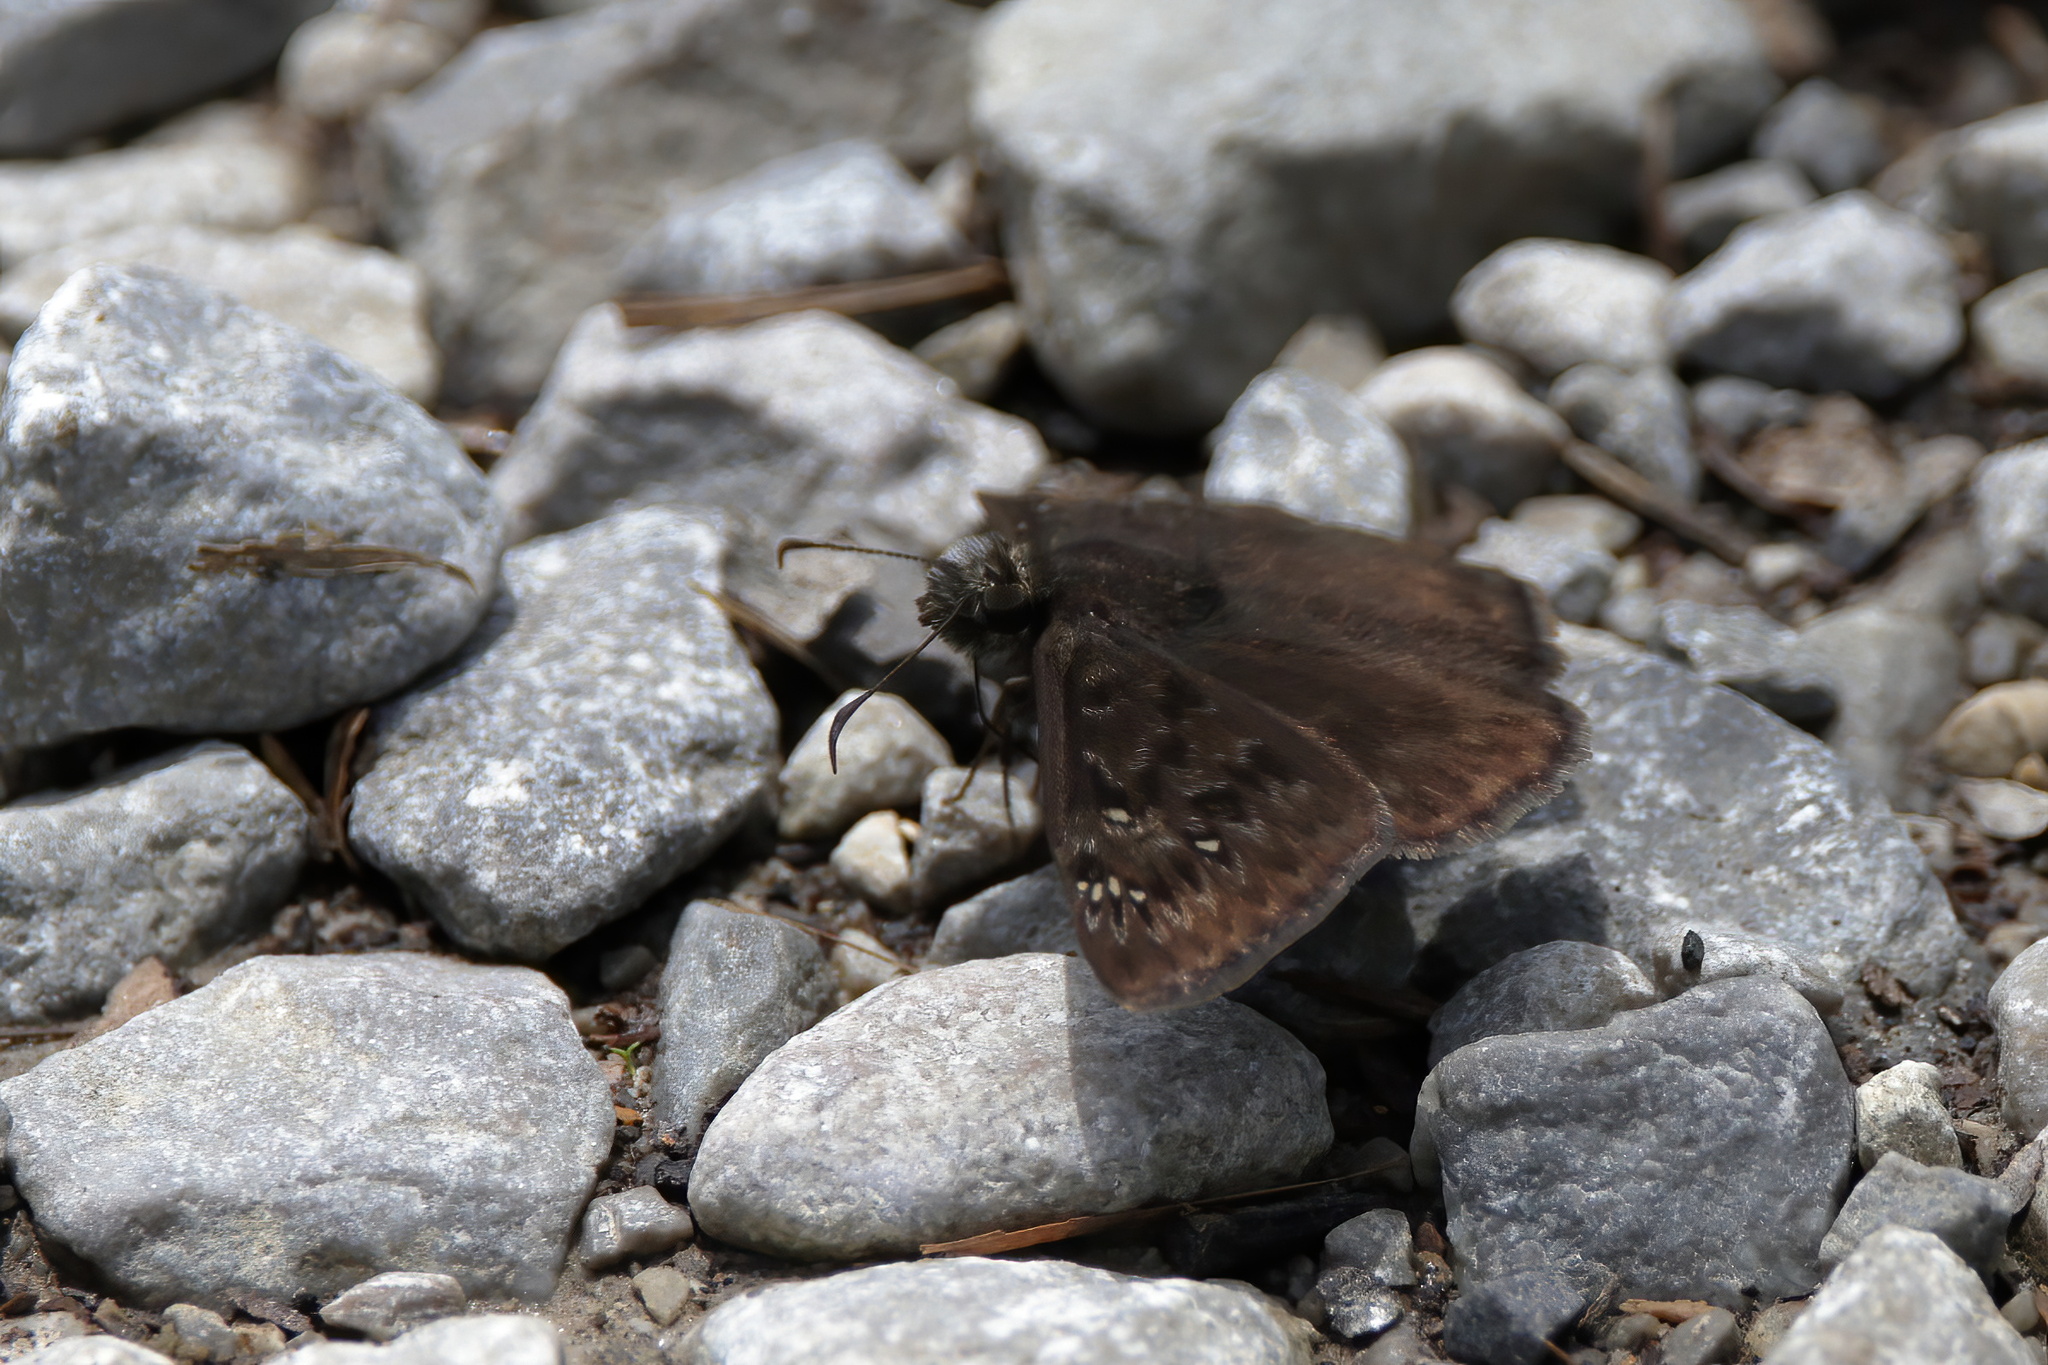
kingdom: Animalia
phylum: Arthropoda
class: Insecta
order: Lepidoptera
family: Hesperiidae
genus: Erynnis
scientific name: Erynnis horatius
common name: Horace's duskywing
